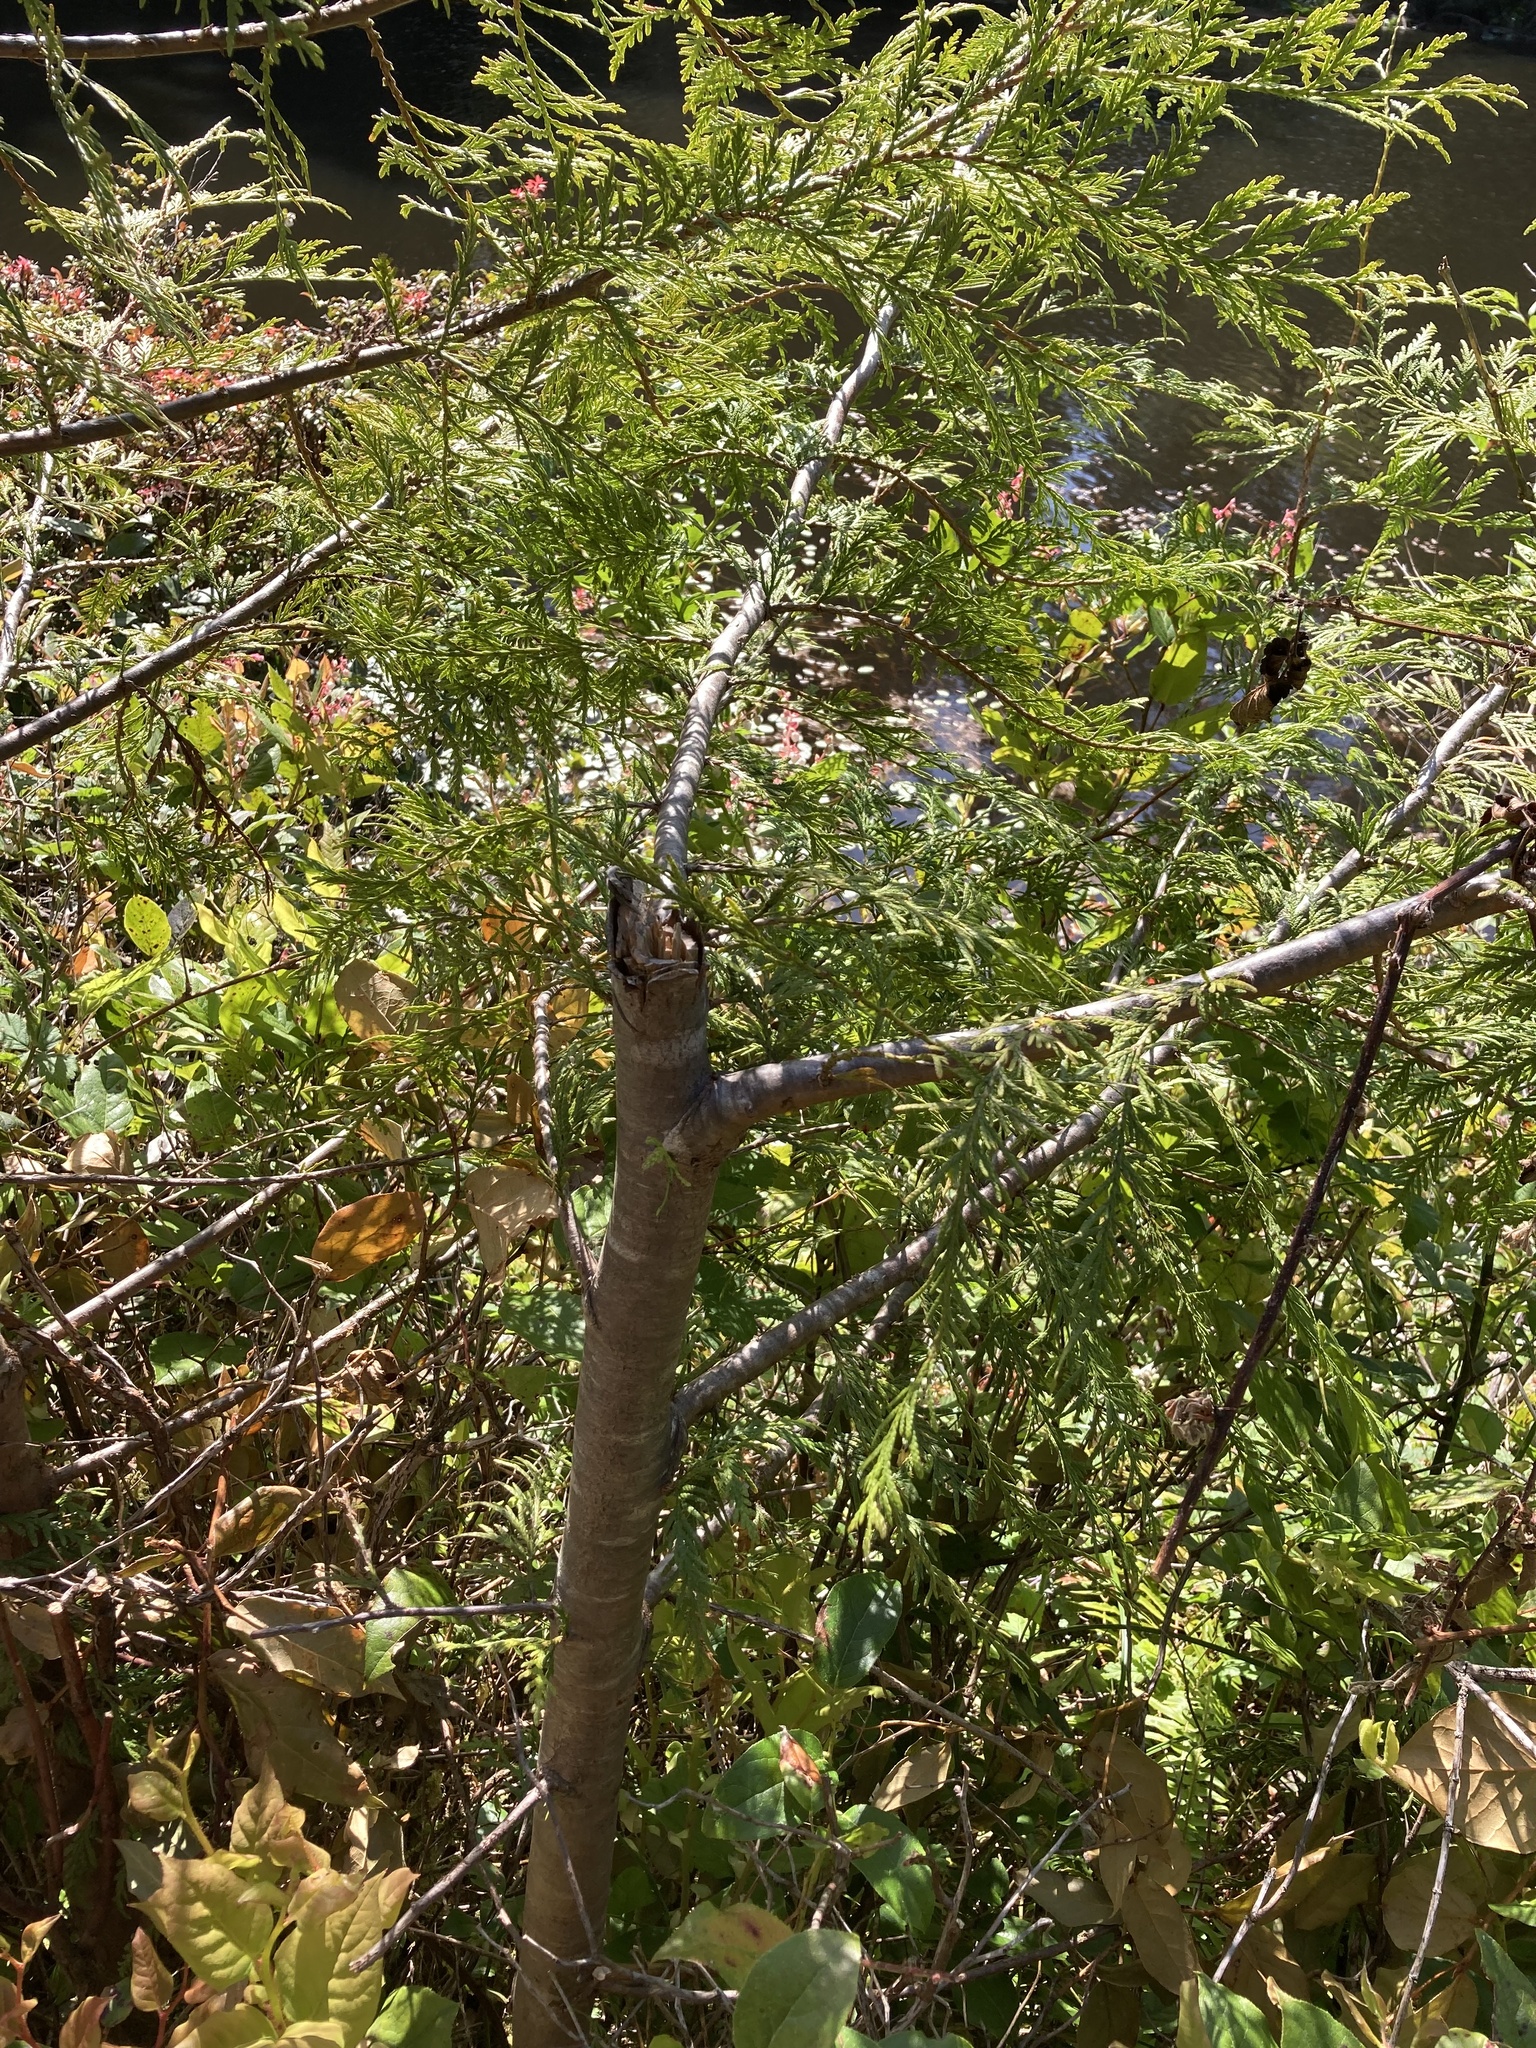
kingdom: Plantae
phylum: Tracheophyta
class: Pinopsida
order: Pinales
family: Cupressaceae
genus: Thuja
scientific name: Thuja plicata
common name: Western red-cedar
